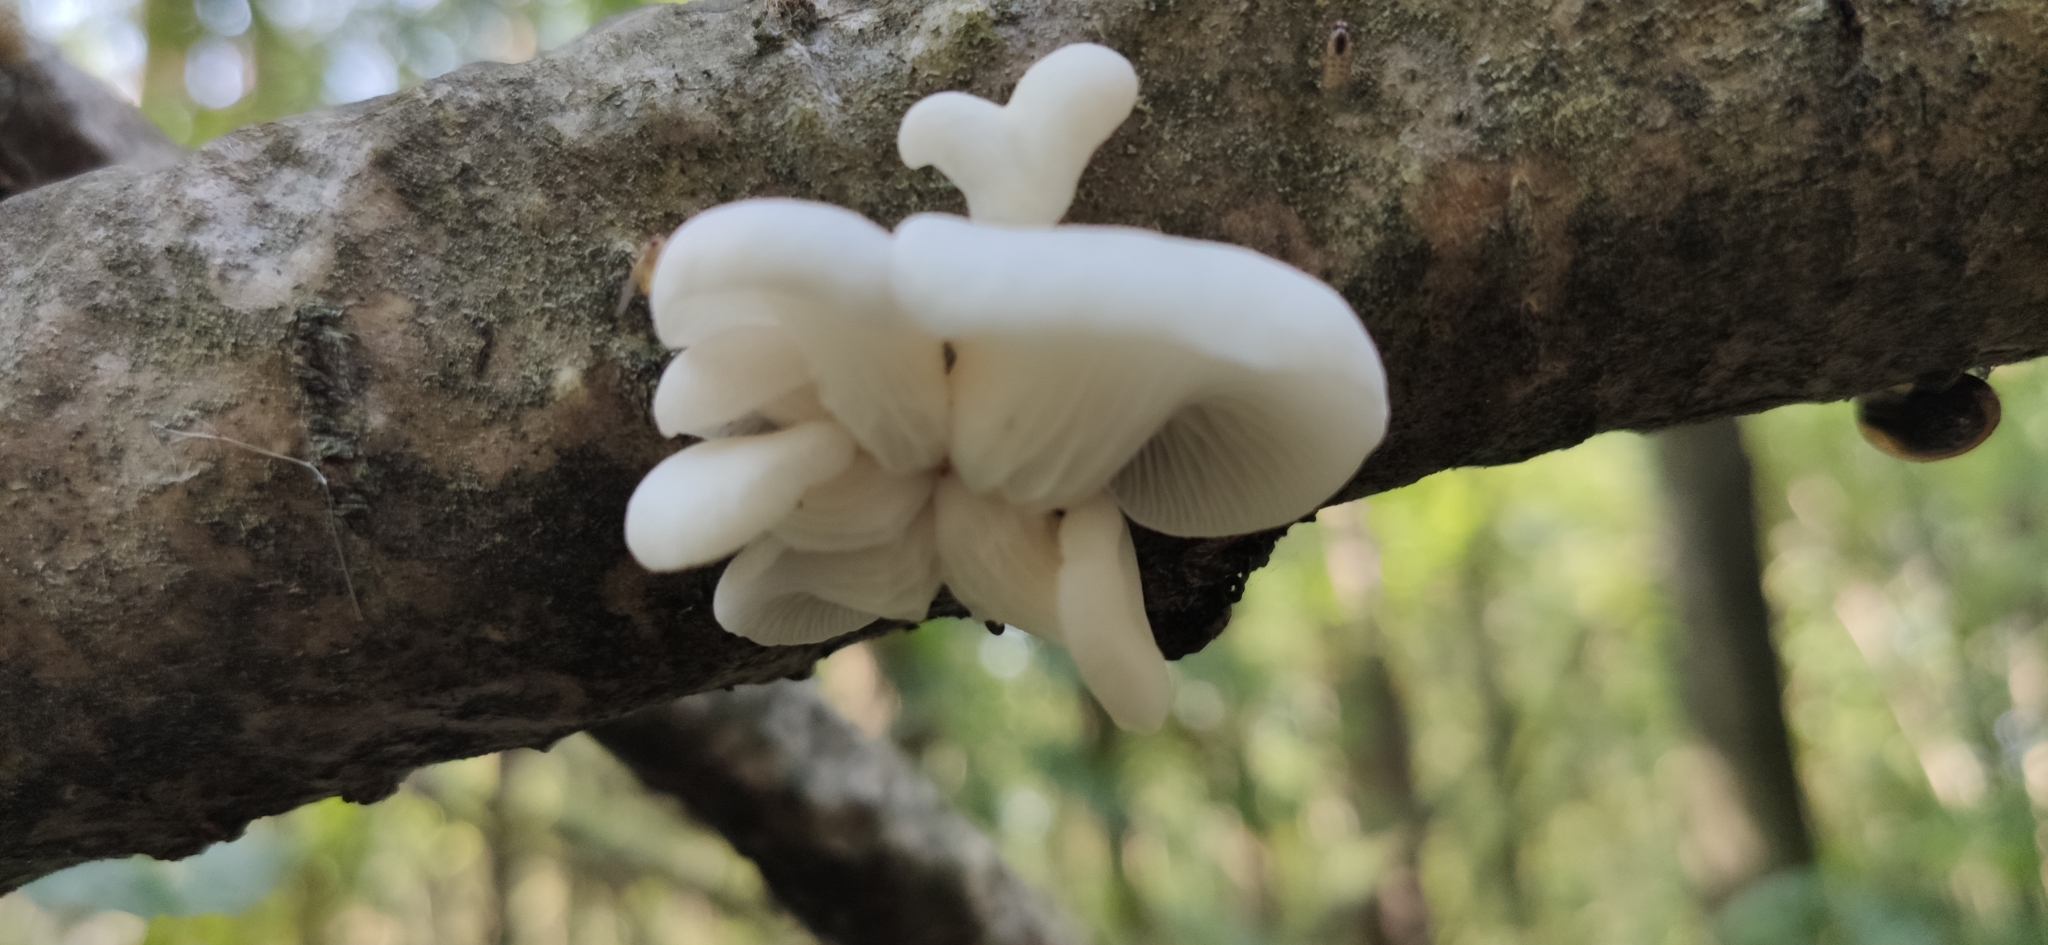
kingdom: Fungi
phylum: Basidiomycota
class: Agaricomycetes
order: Agaricales
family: Pleurotaceae
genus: Pleurotus
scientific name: Pleurotus pulmonarius
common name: Pale oyster
